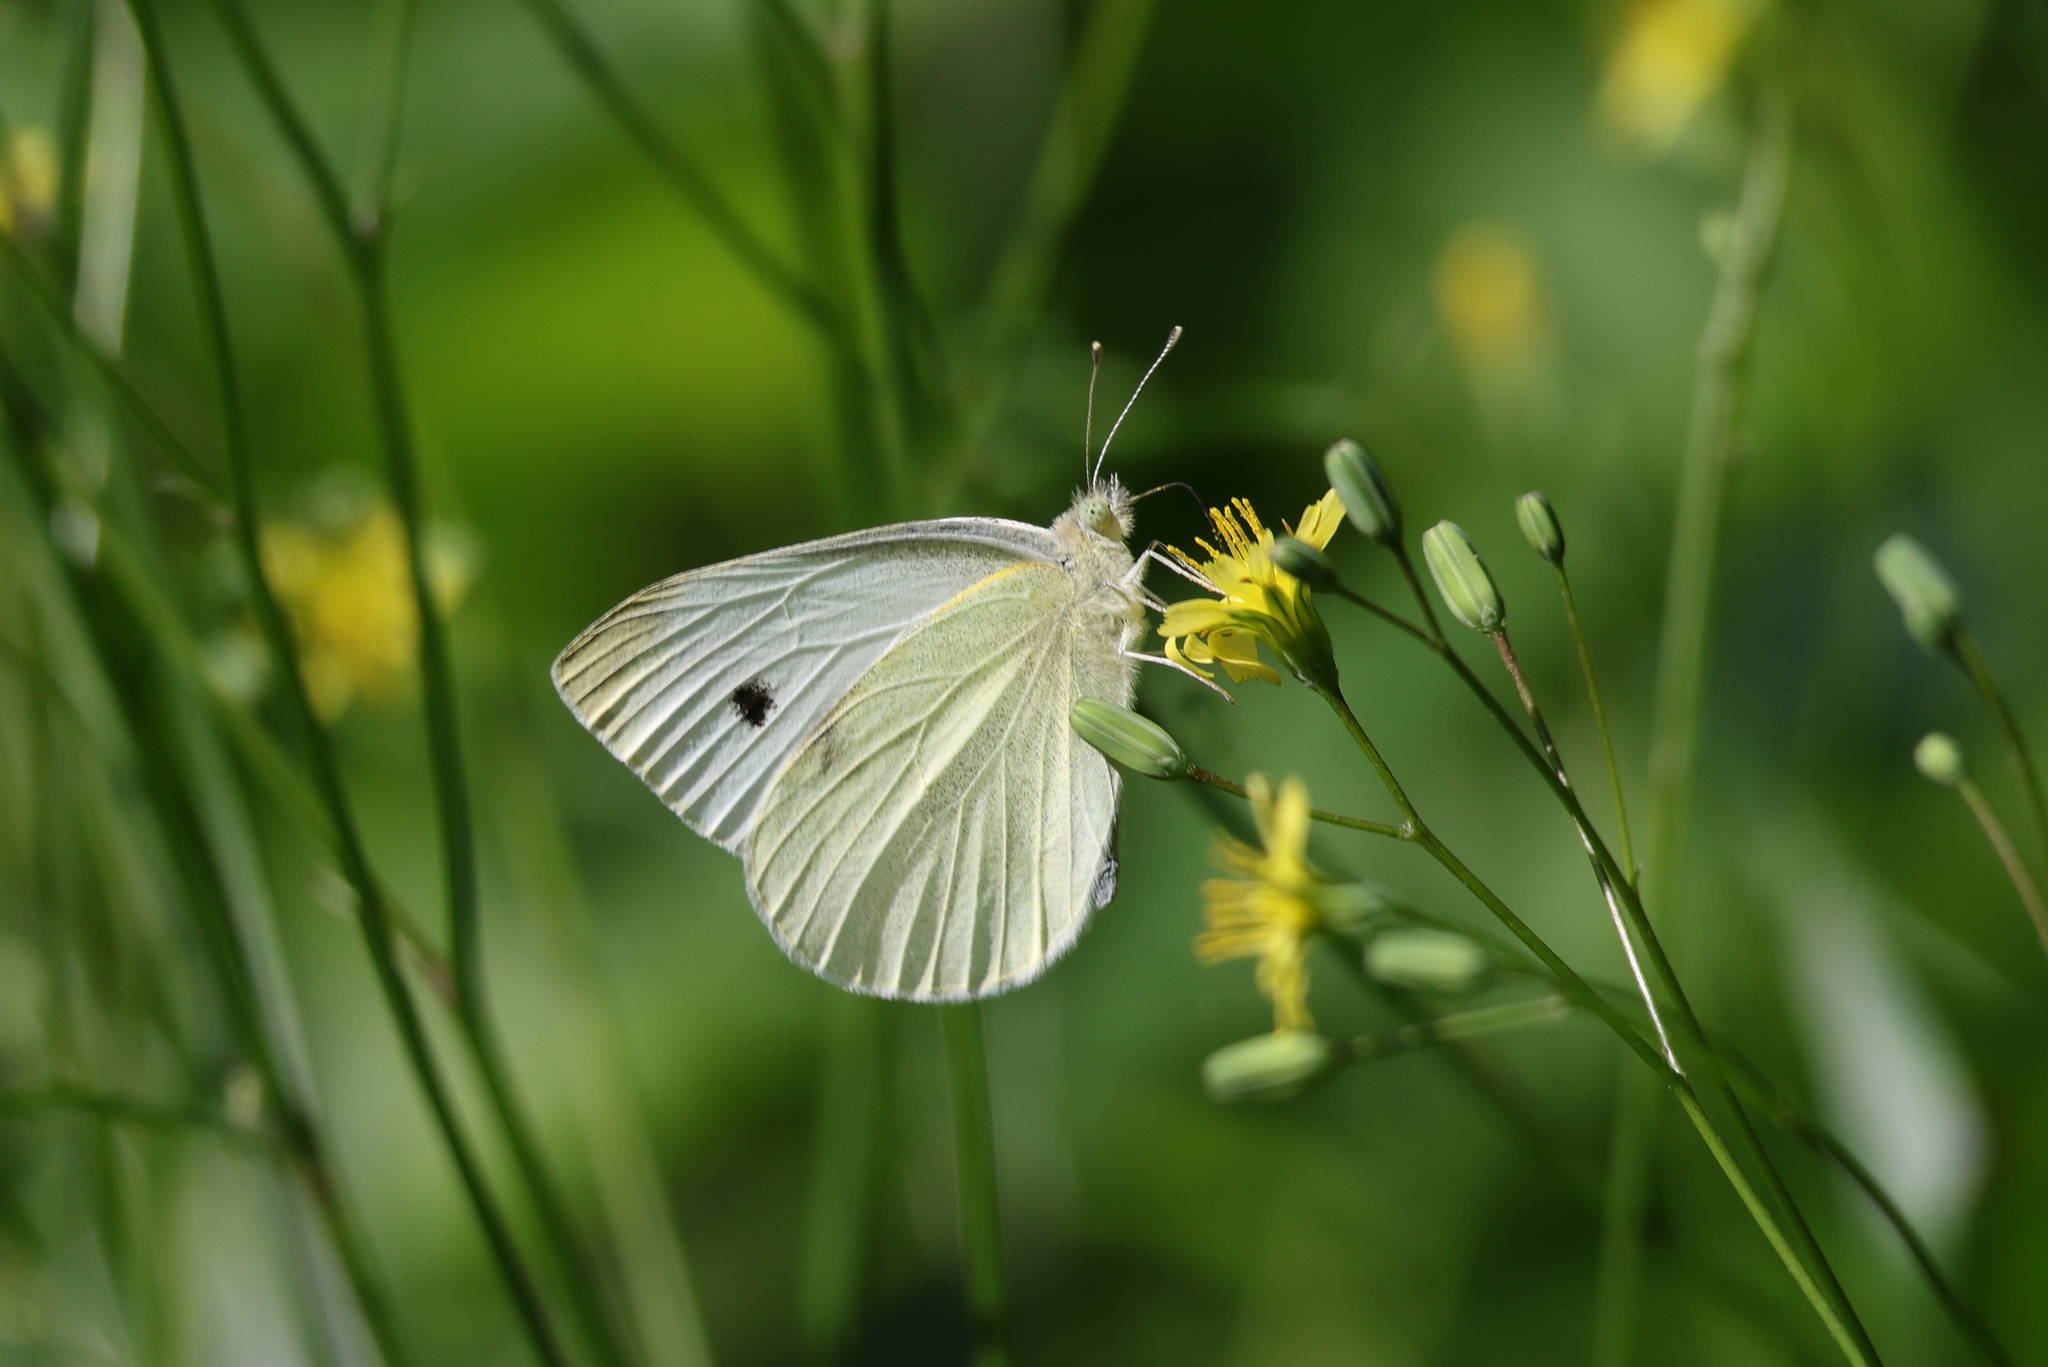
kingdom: Animalia
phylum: Arthropoda
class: Insecta
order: Lepidoptera
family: Pieridae
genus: Pieris
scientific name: Pieris rapae
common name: Small white
